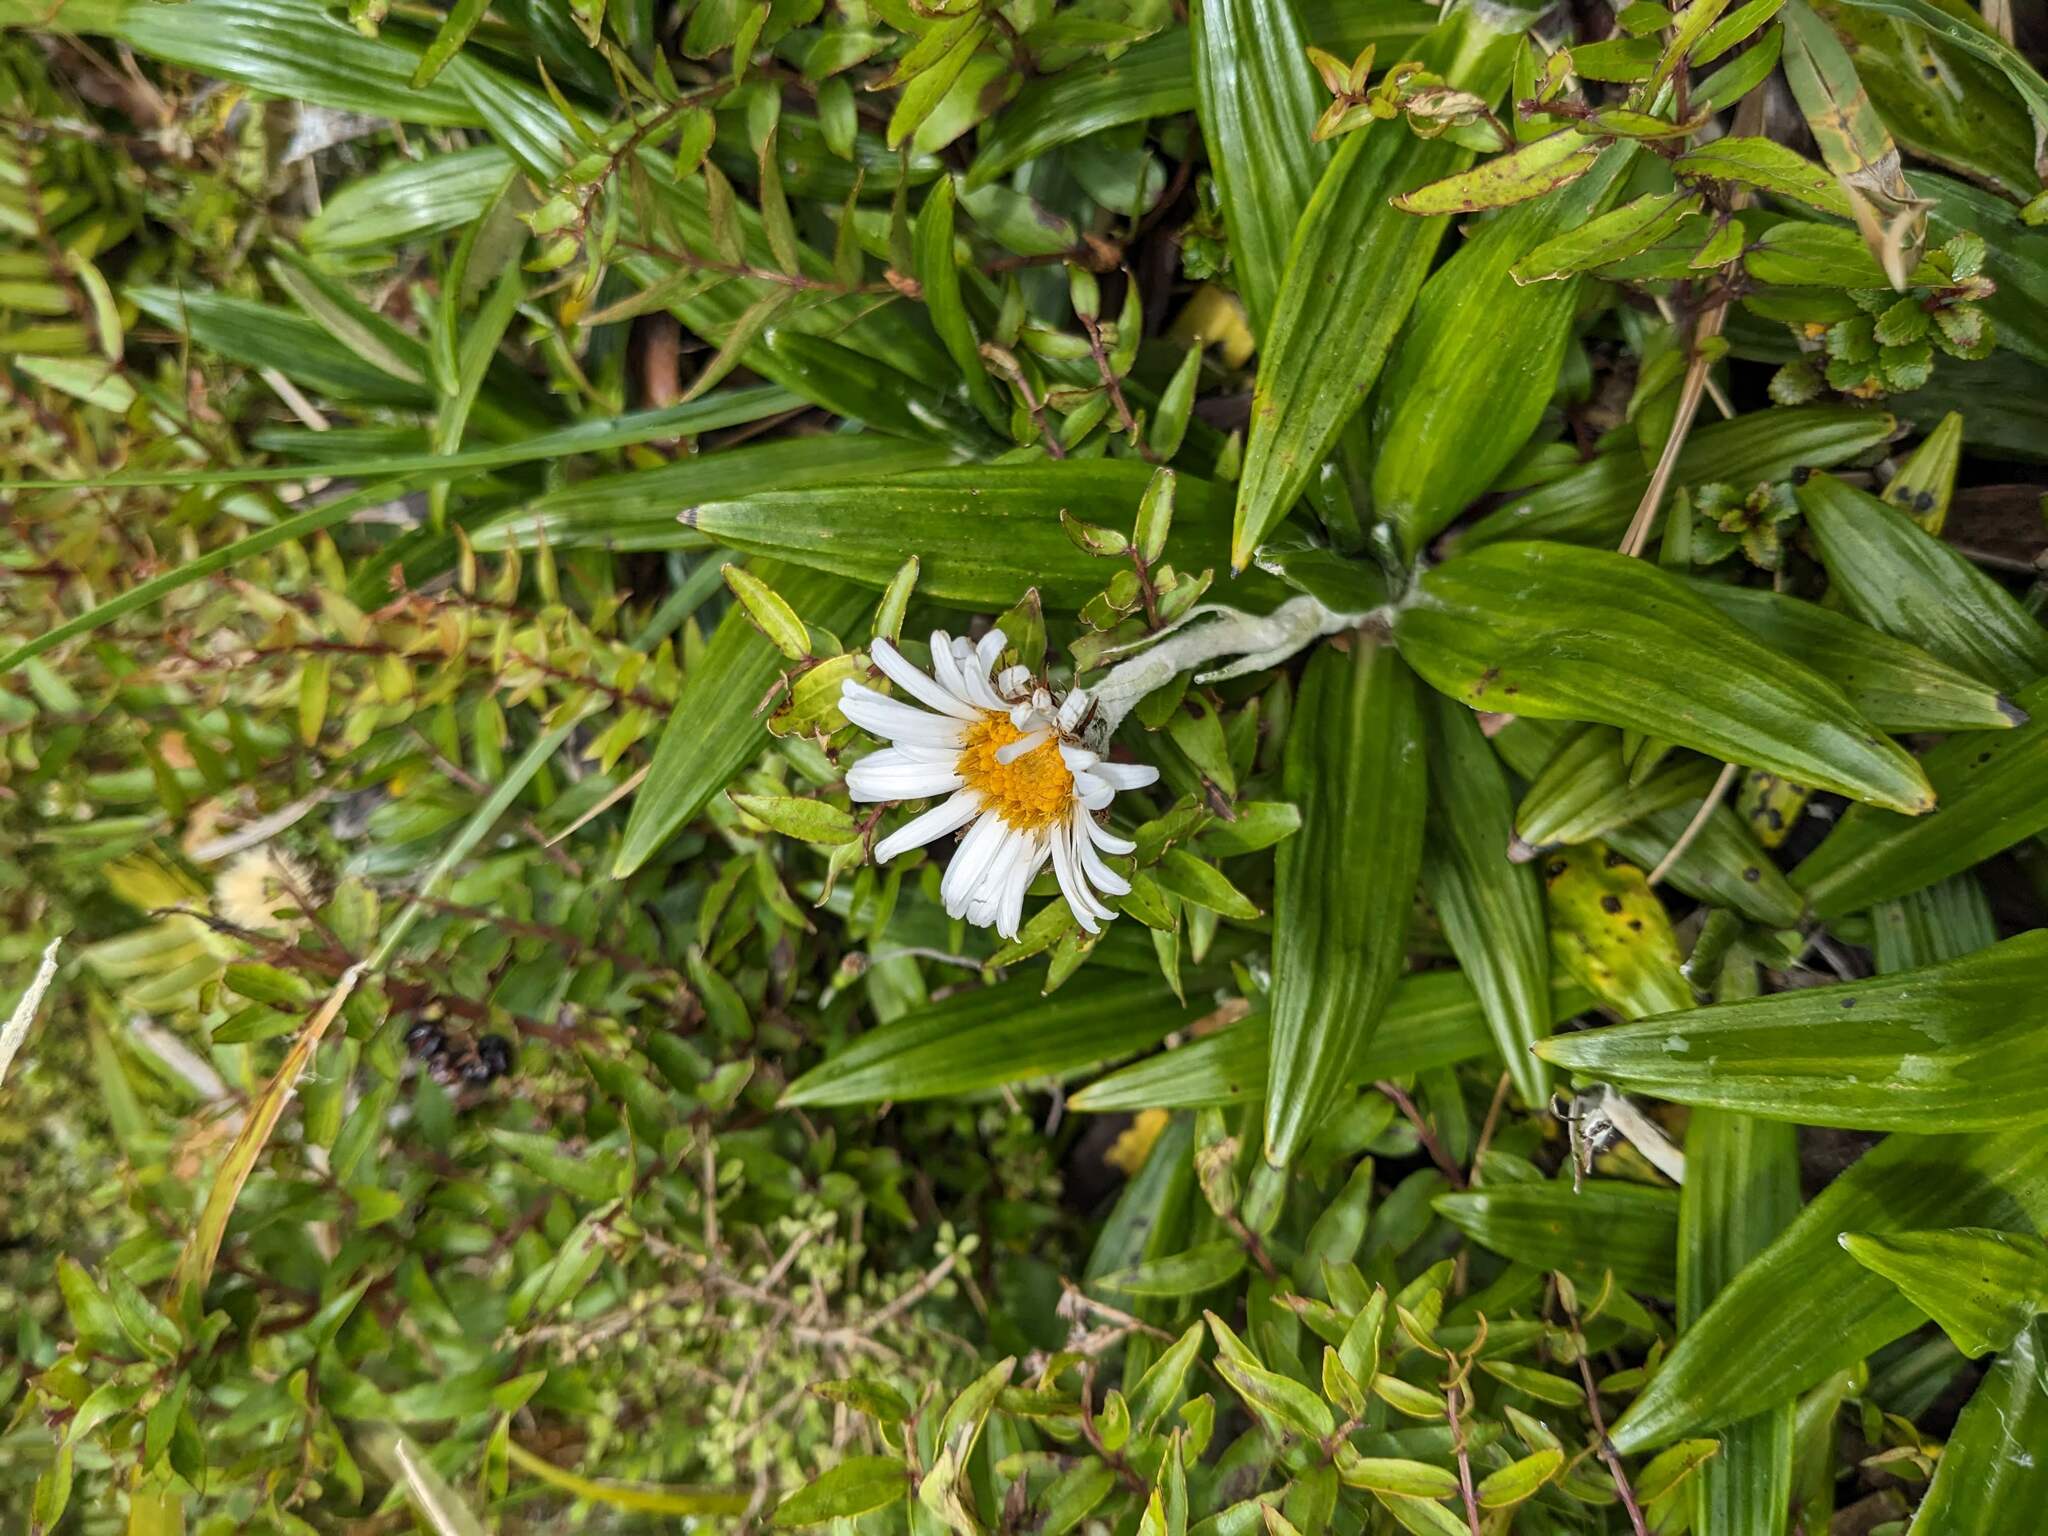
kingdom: Plantae
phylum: Tracheophyta
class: Magnoliopsida
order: Asterales
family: Asteraceae
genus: Celmisia
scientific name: Celmisia spectabilis
